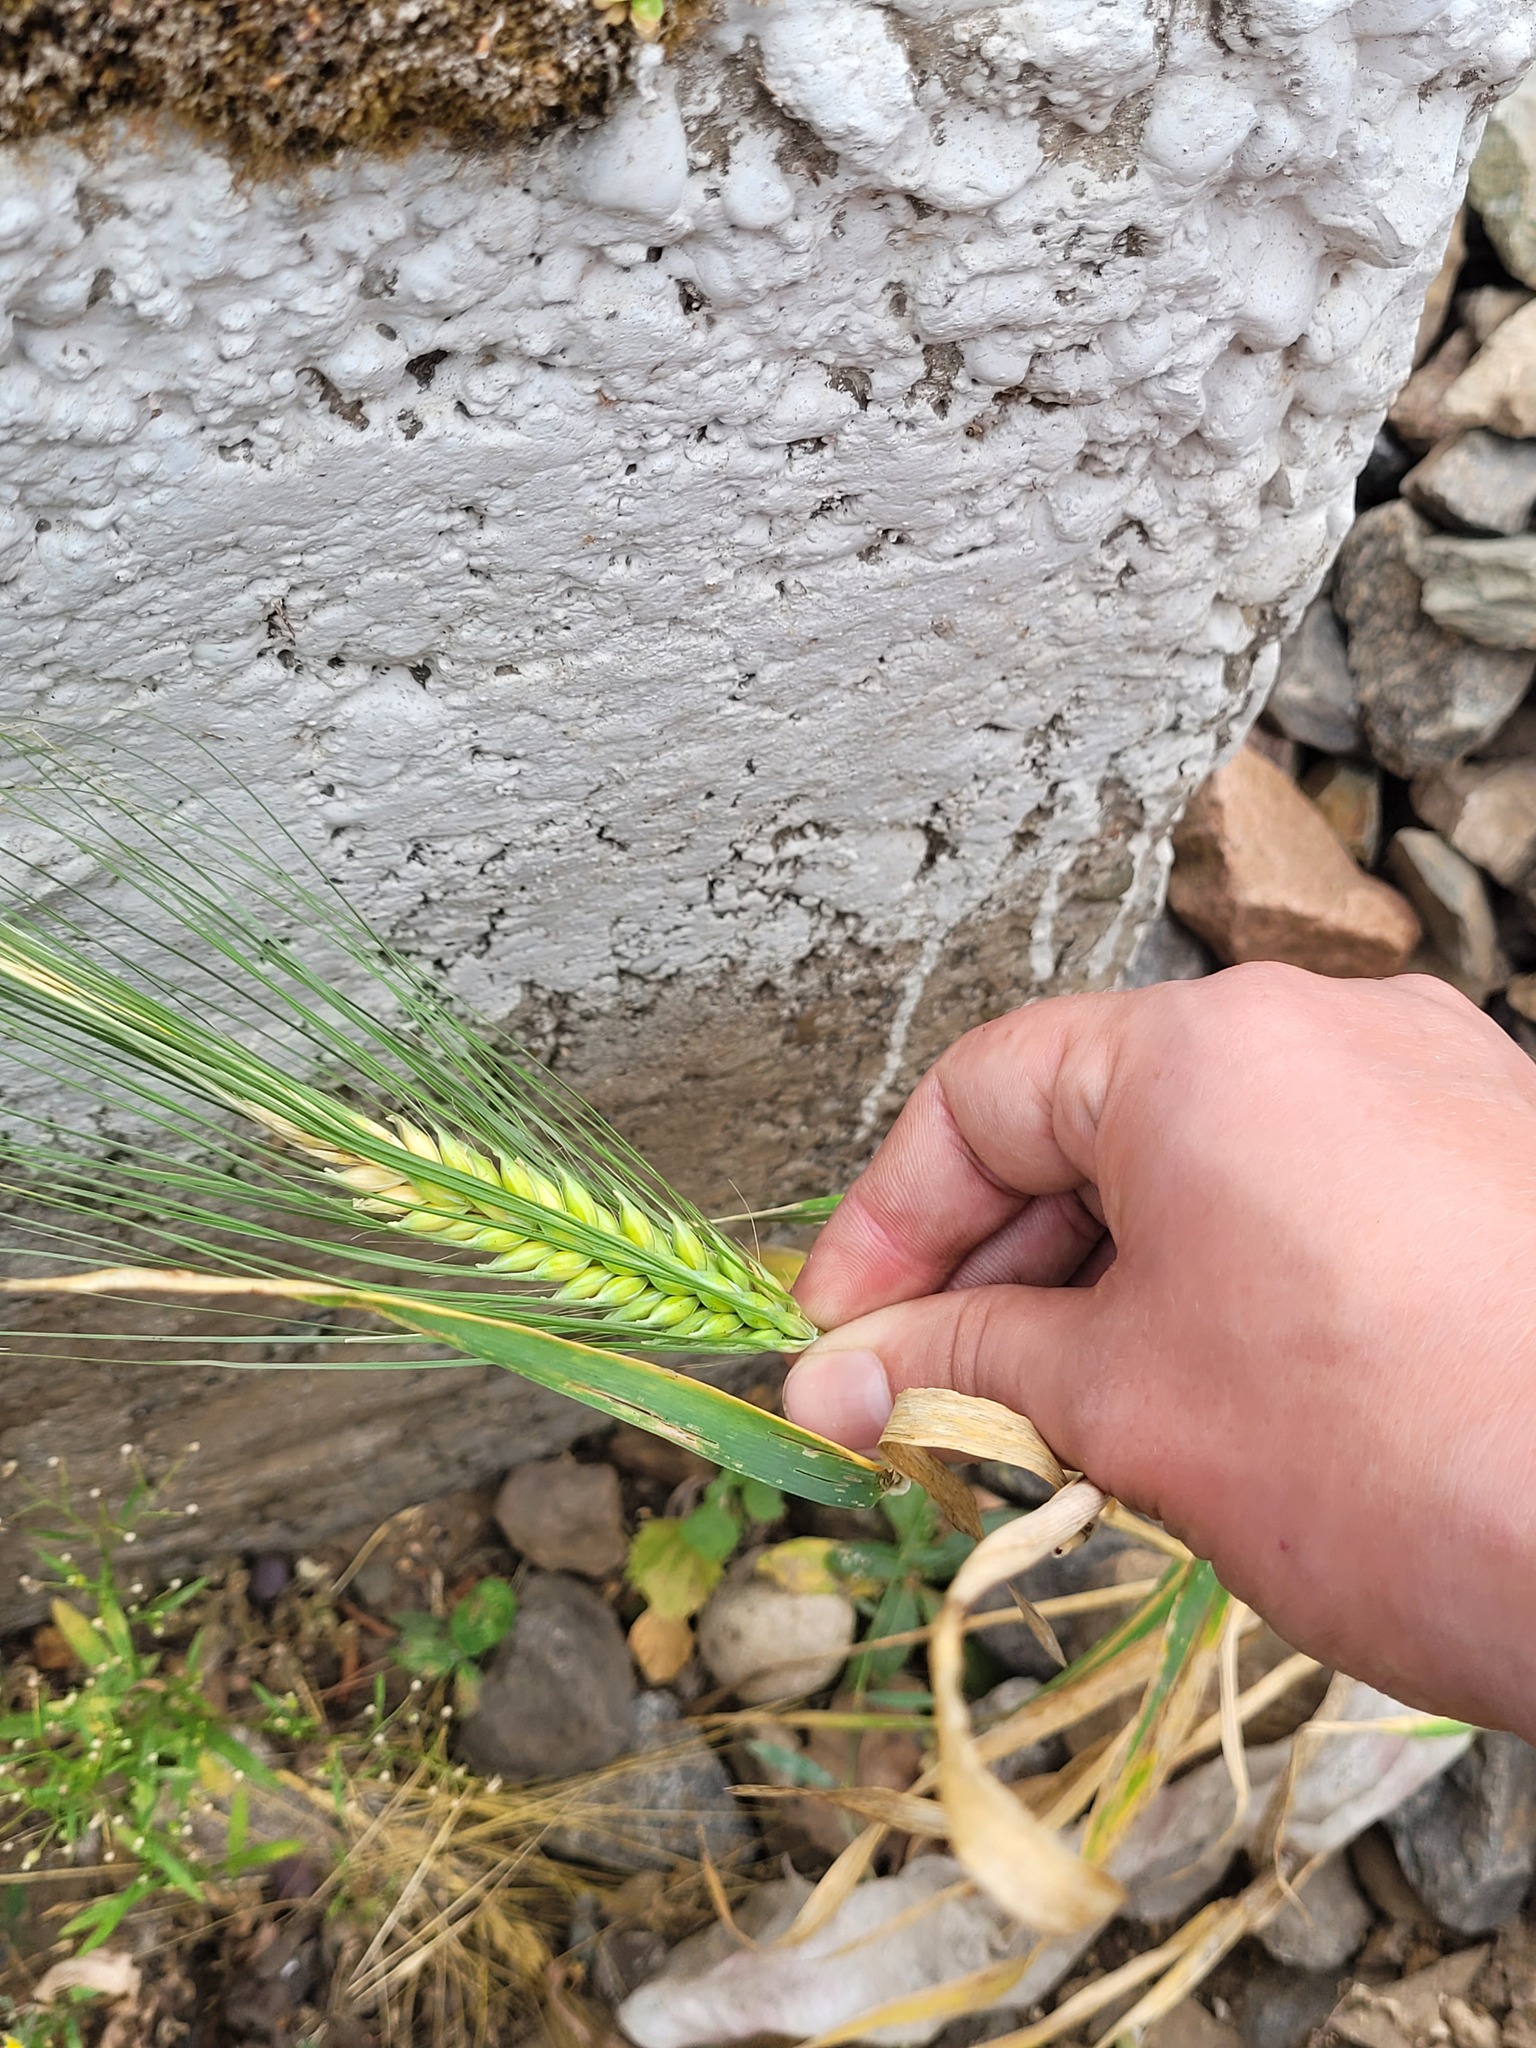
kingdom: Plantae
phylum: Tracheophyta
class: Liliopsida
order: Poales
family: Poaceae
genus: Hordeum
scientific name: Hordeum vulgare
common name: Common barley
